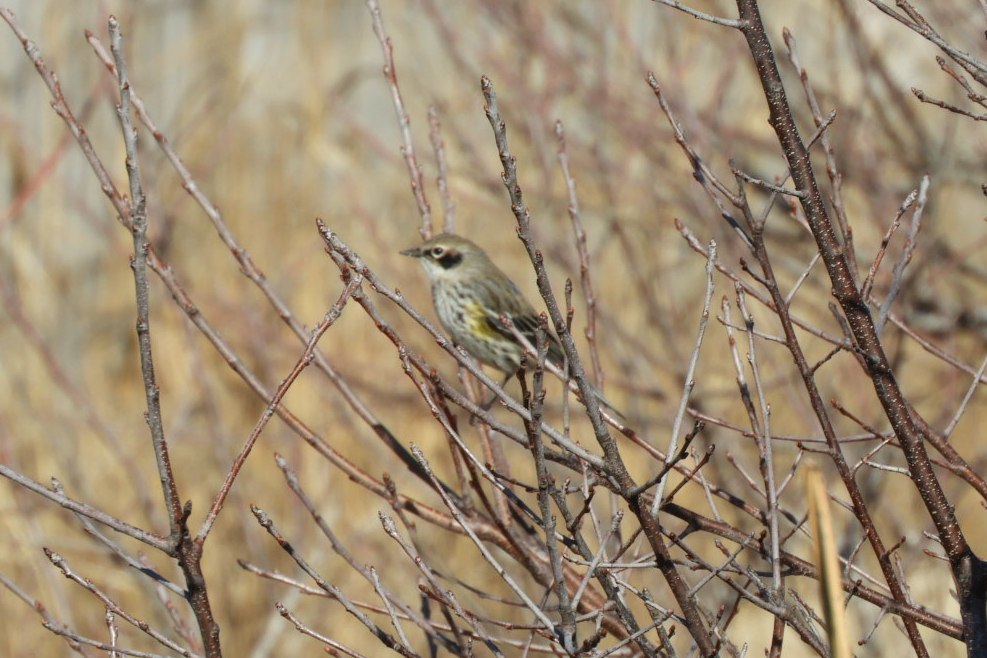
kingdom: Animalia
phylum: Chordata
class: Aves
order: Passeriformes
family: Parulidae
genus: Setophaga
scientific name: Setophaga coronata
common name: Myrtle warbler
